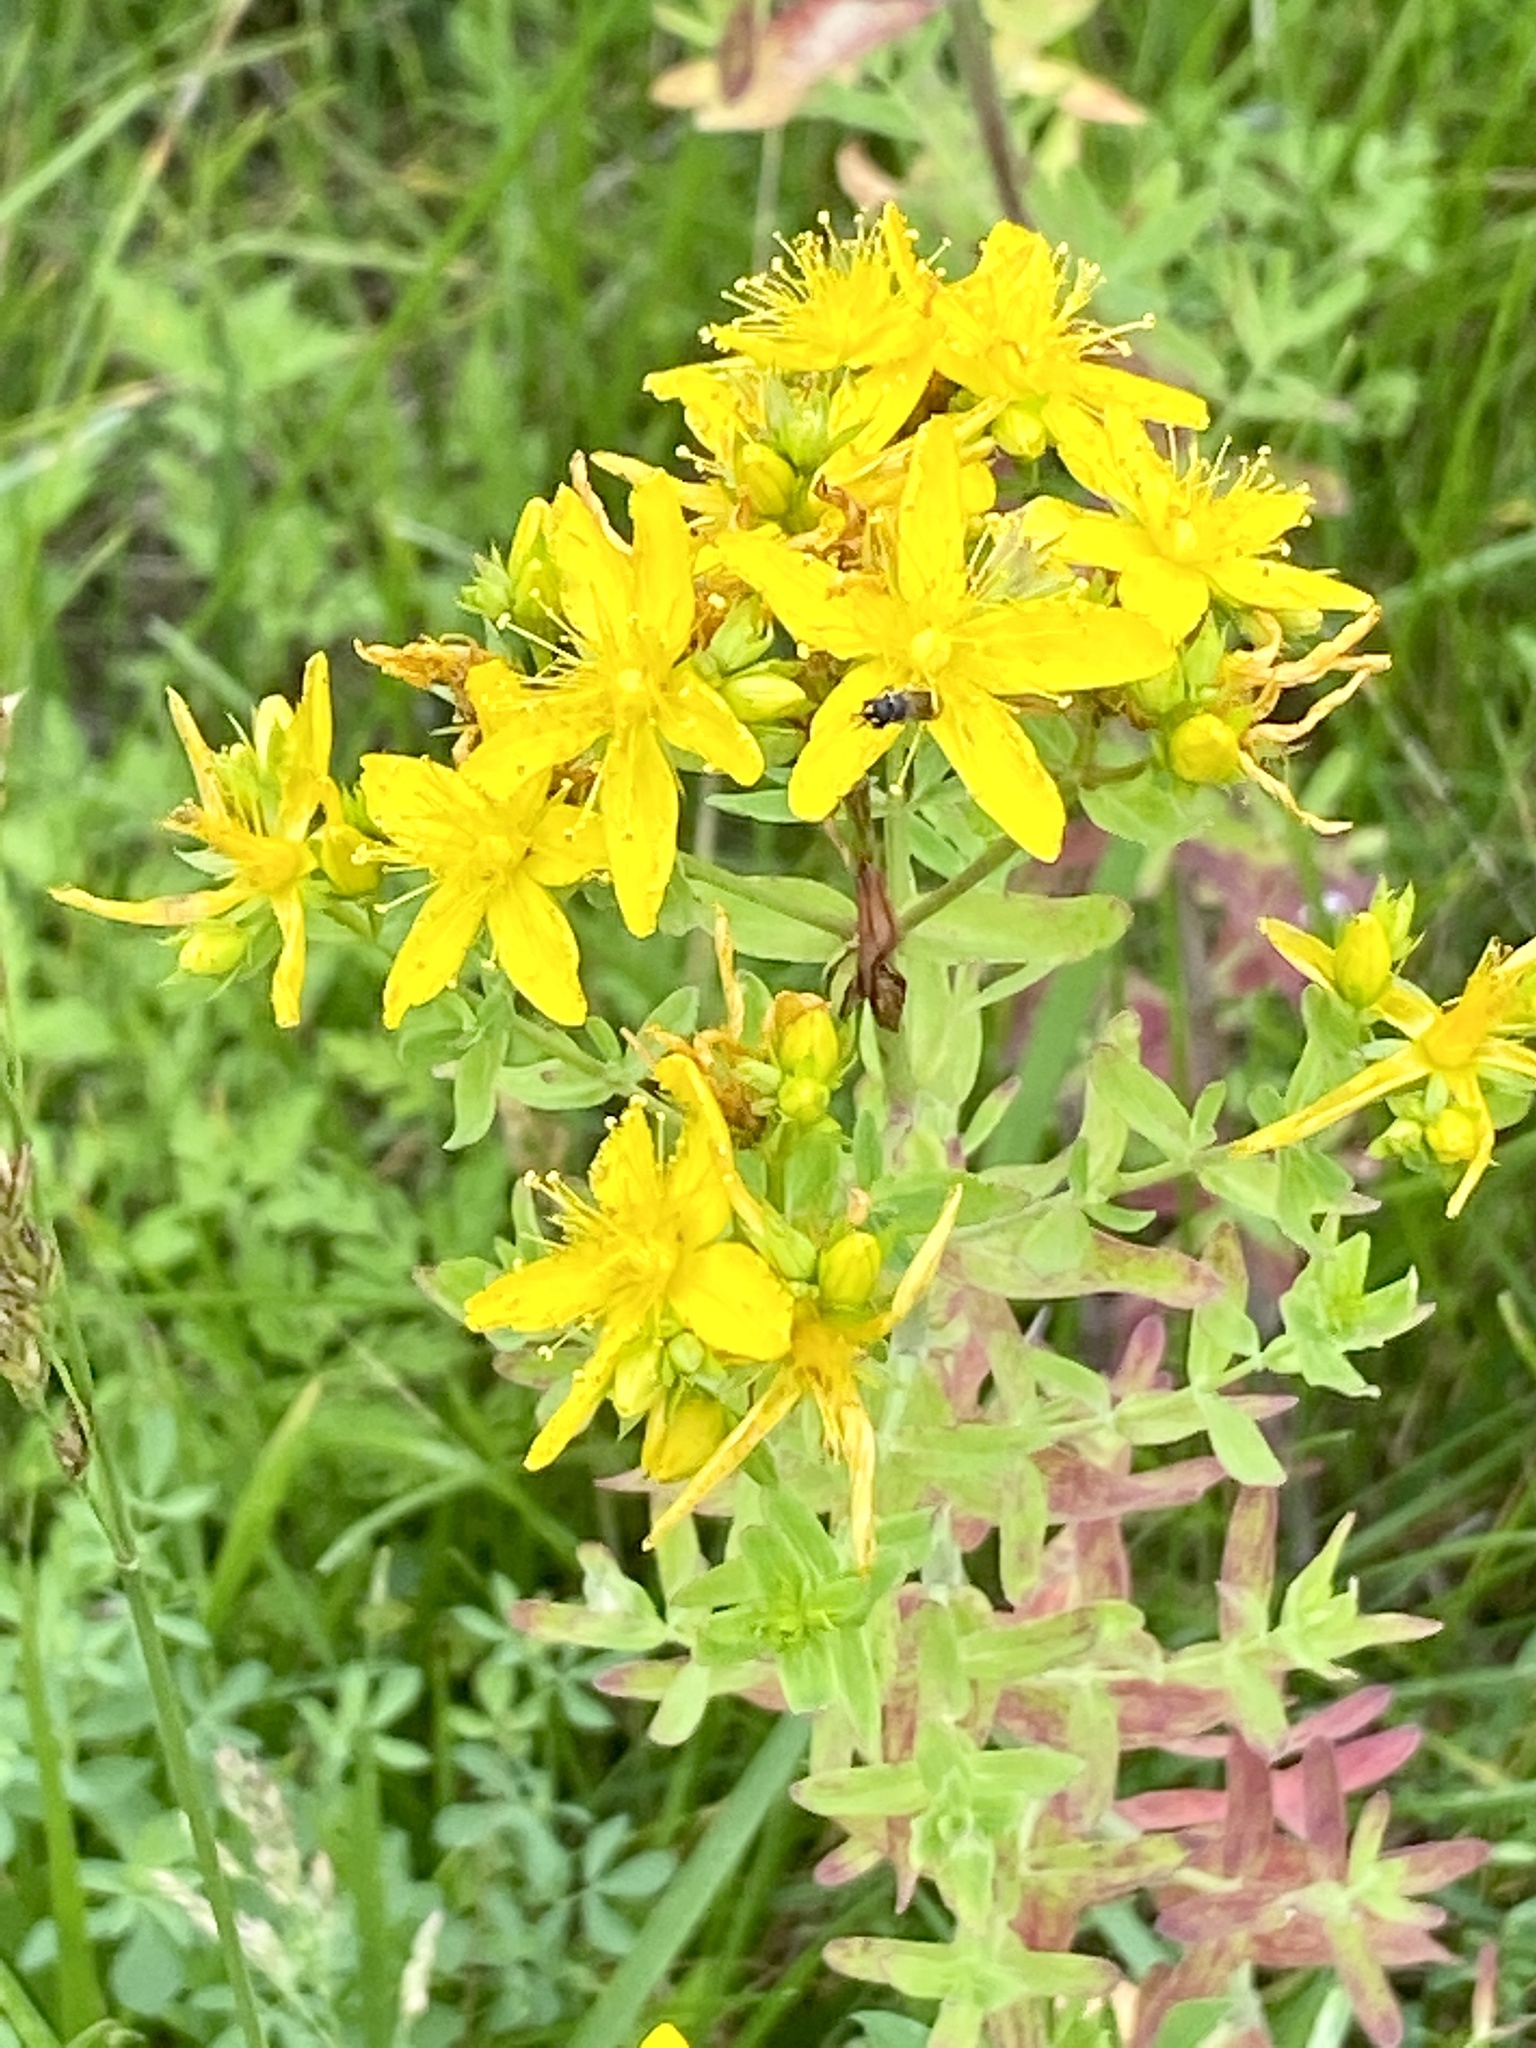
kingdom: Plantae
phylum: Tracheophyta
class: Magnoliopsida
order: Malpighiales
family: Hypericaceae
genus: Hypericum
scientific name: Hypericum perforatum
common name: Common st. johnswort
